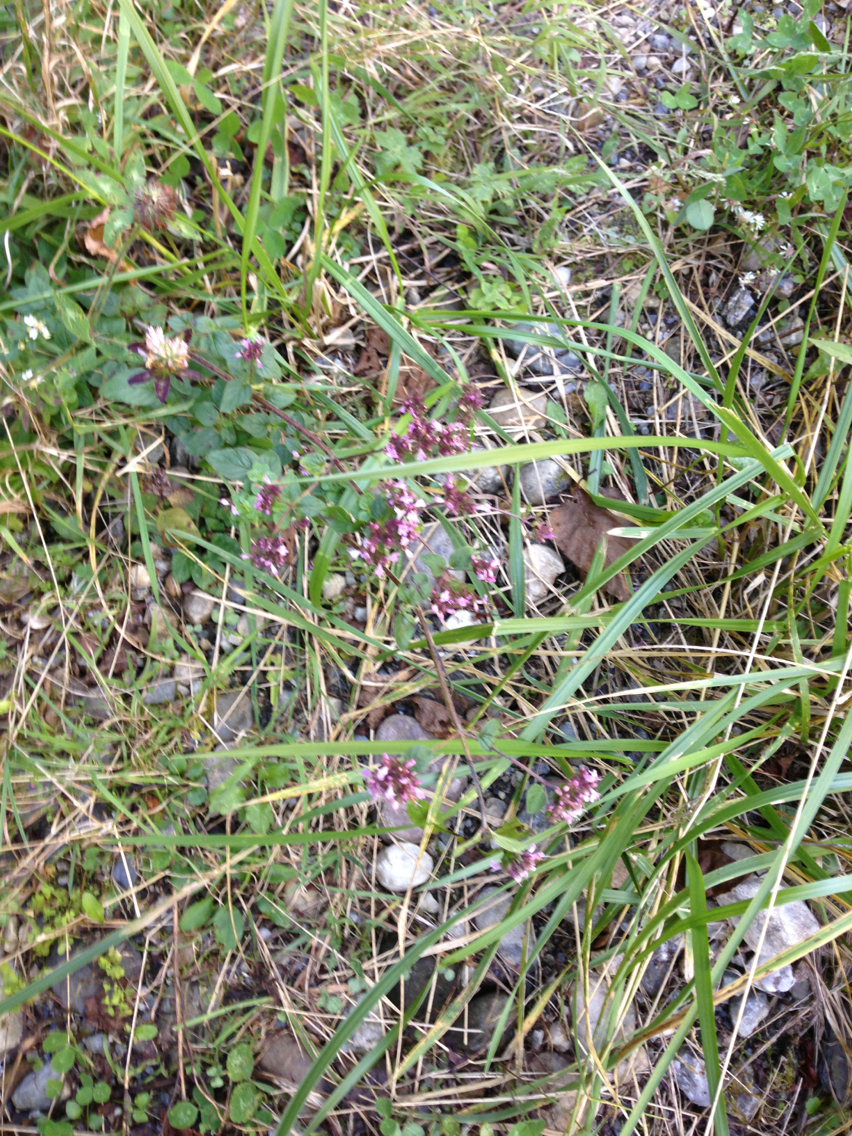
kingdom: Plantae
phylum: Tracheophyta
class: Magnoliopsida
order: Lamiales
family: Lamiaceae
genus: Origanum
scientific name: Origanum vulgare
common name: Wild marjoram
